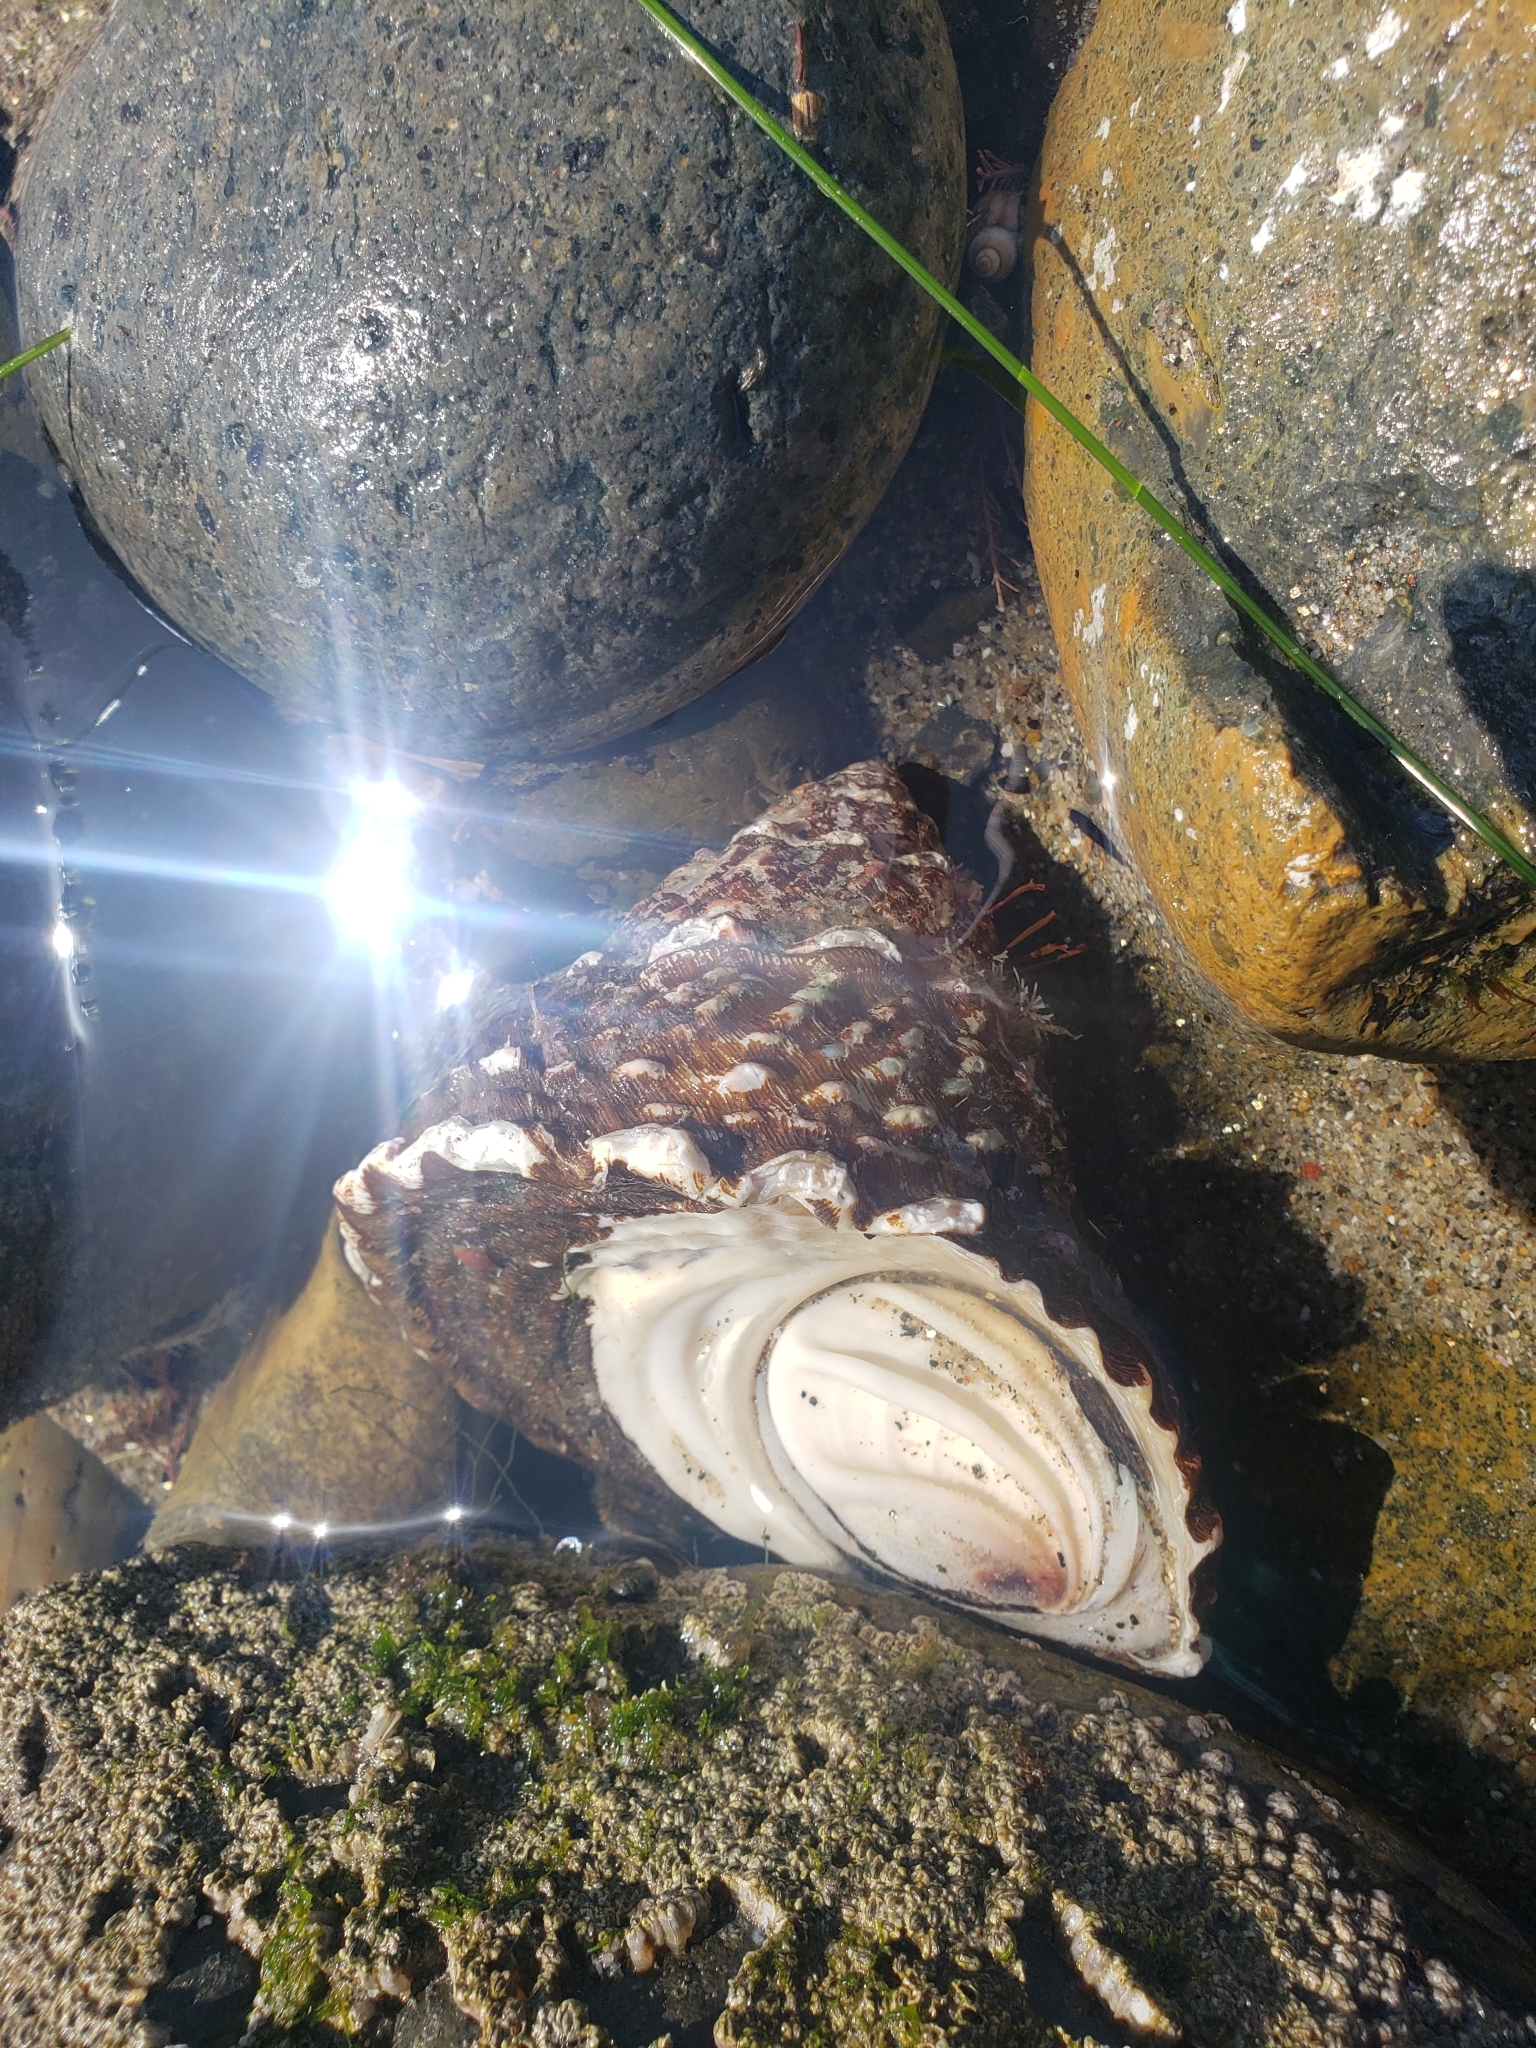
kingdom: Animalia
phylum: Mollusca
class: Gastropoda
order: Trochida
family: Turbinidae
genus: Megastraea
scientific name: Megastraea undosa
